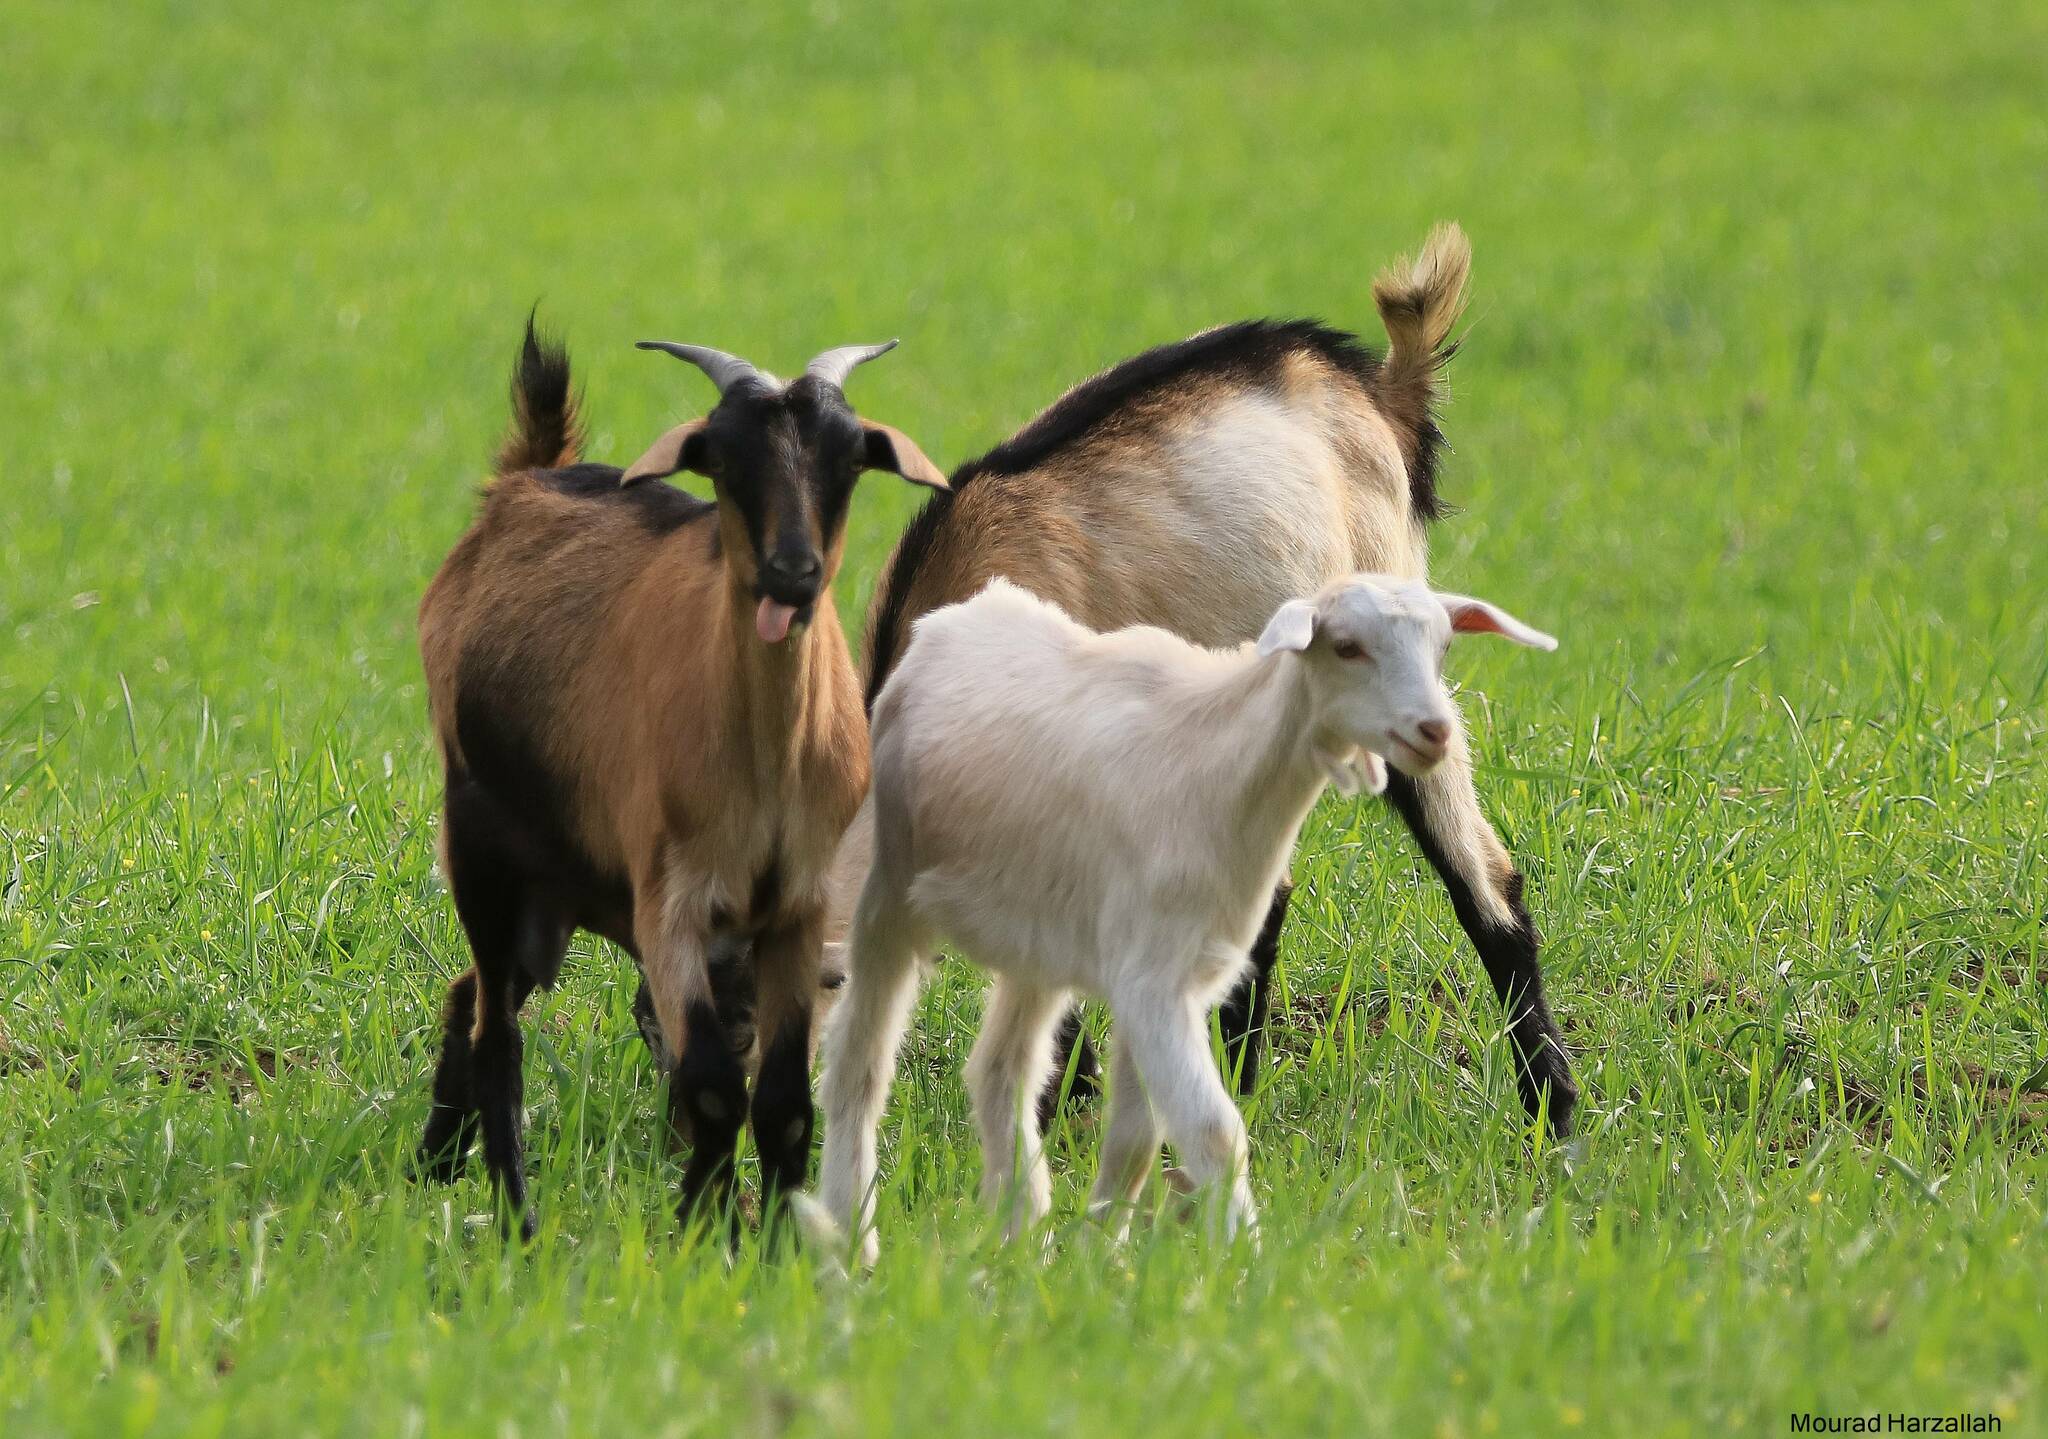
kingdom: Animalia
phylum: Chordata
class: Mammalia
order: Artiodactyla
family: Bovidae
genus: Capra
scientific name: Capra hircus
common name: Domestic goat
